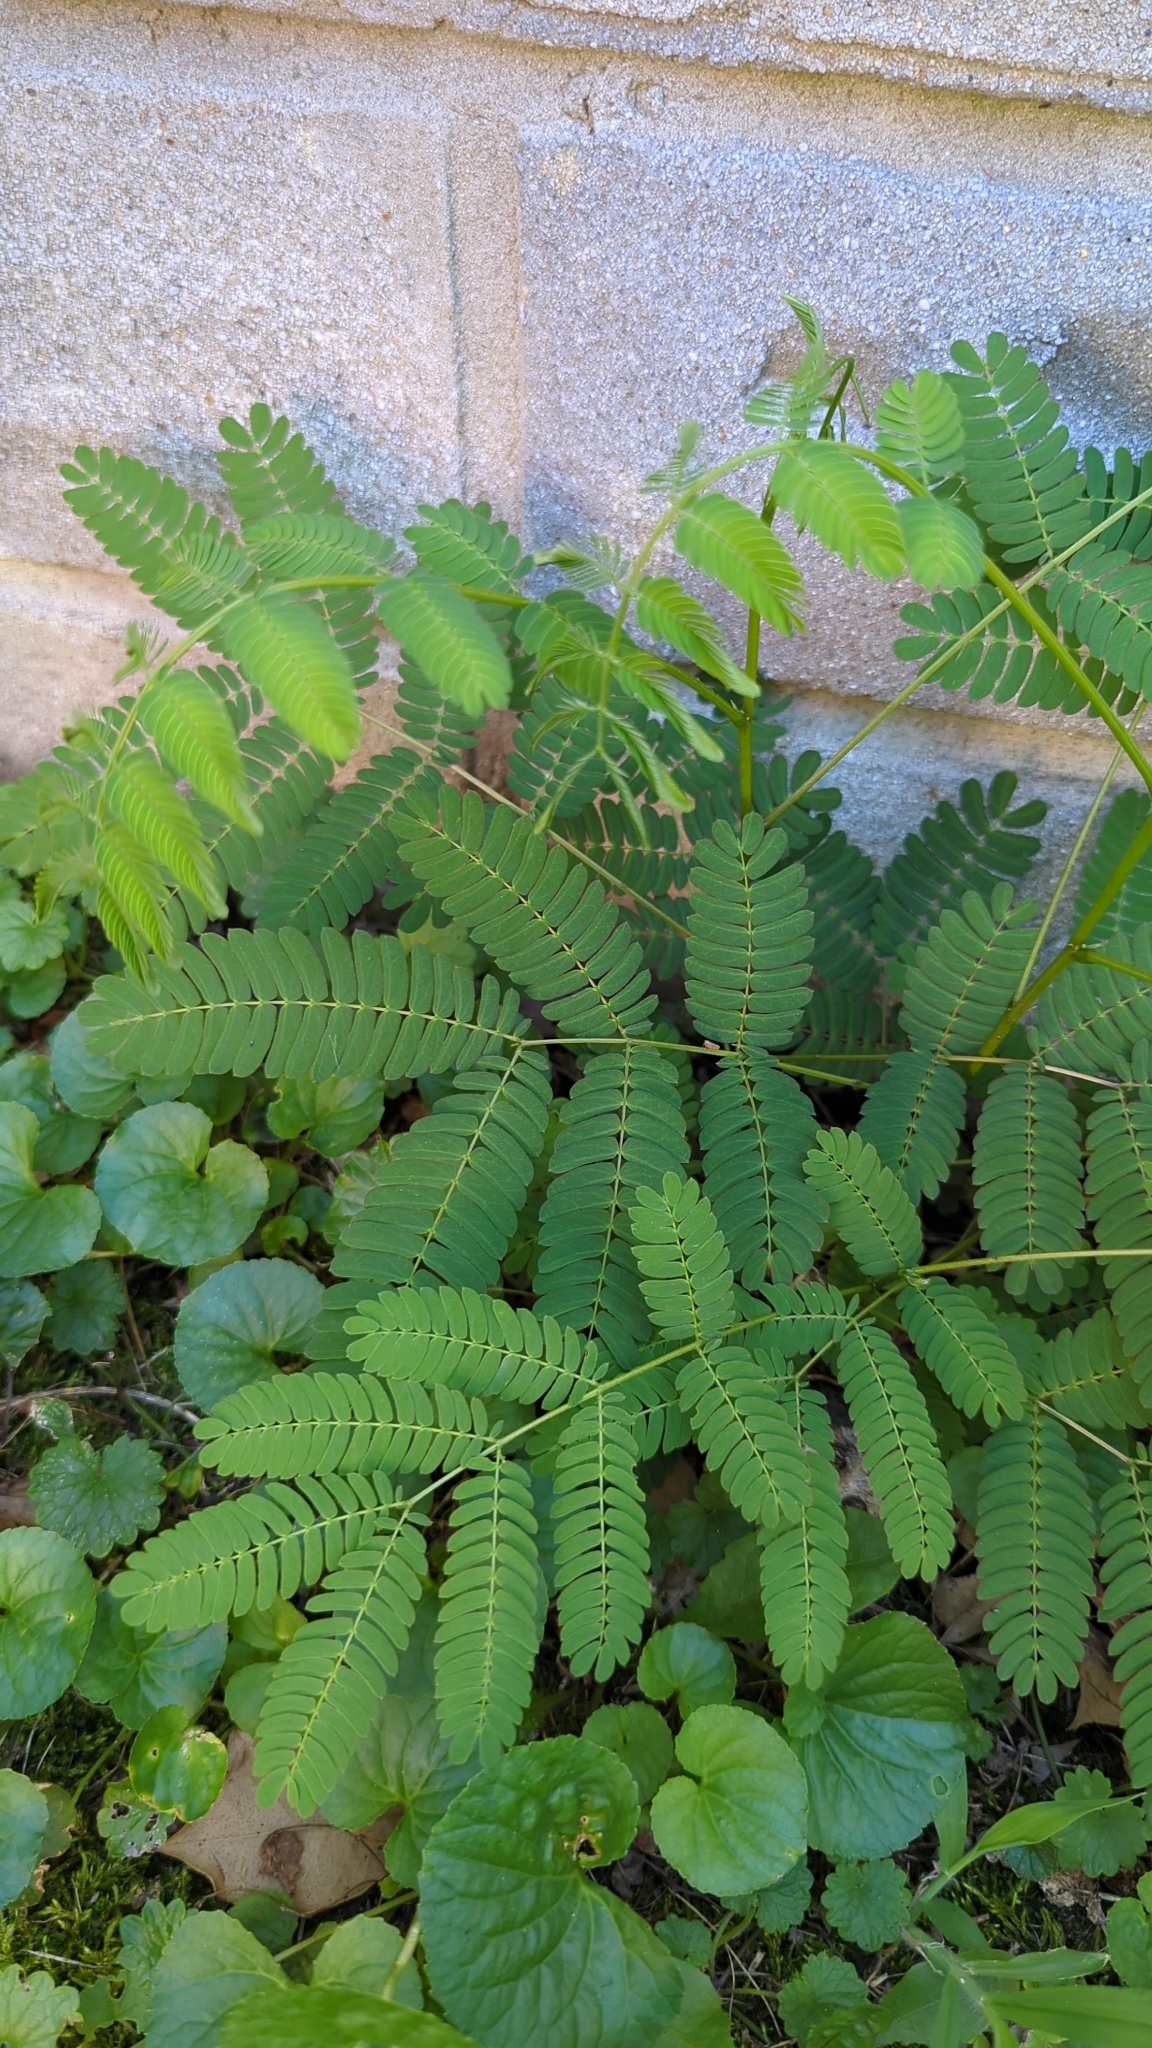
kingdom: Plantae
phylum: Tracheophyta
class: Magnoliopsida
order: Fabales
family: Fabaceae
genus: Albizia
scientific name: Albizia julibrissin
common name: Silktree
